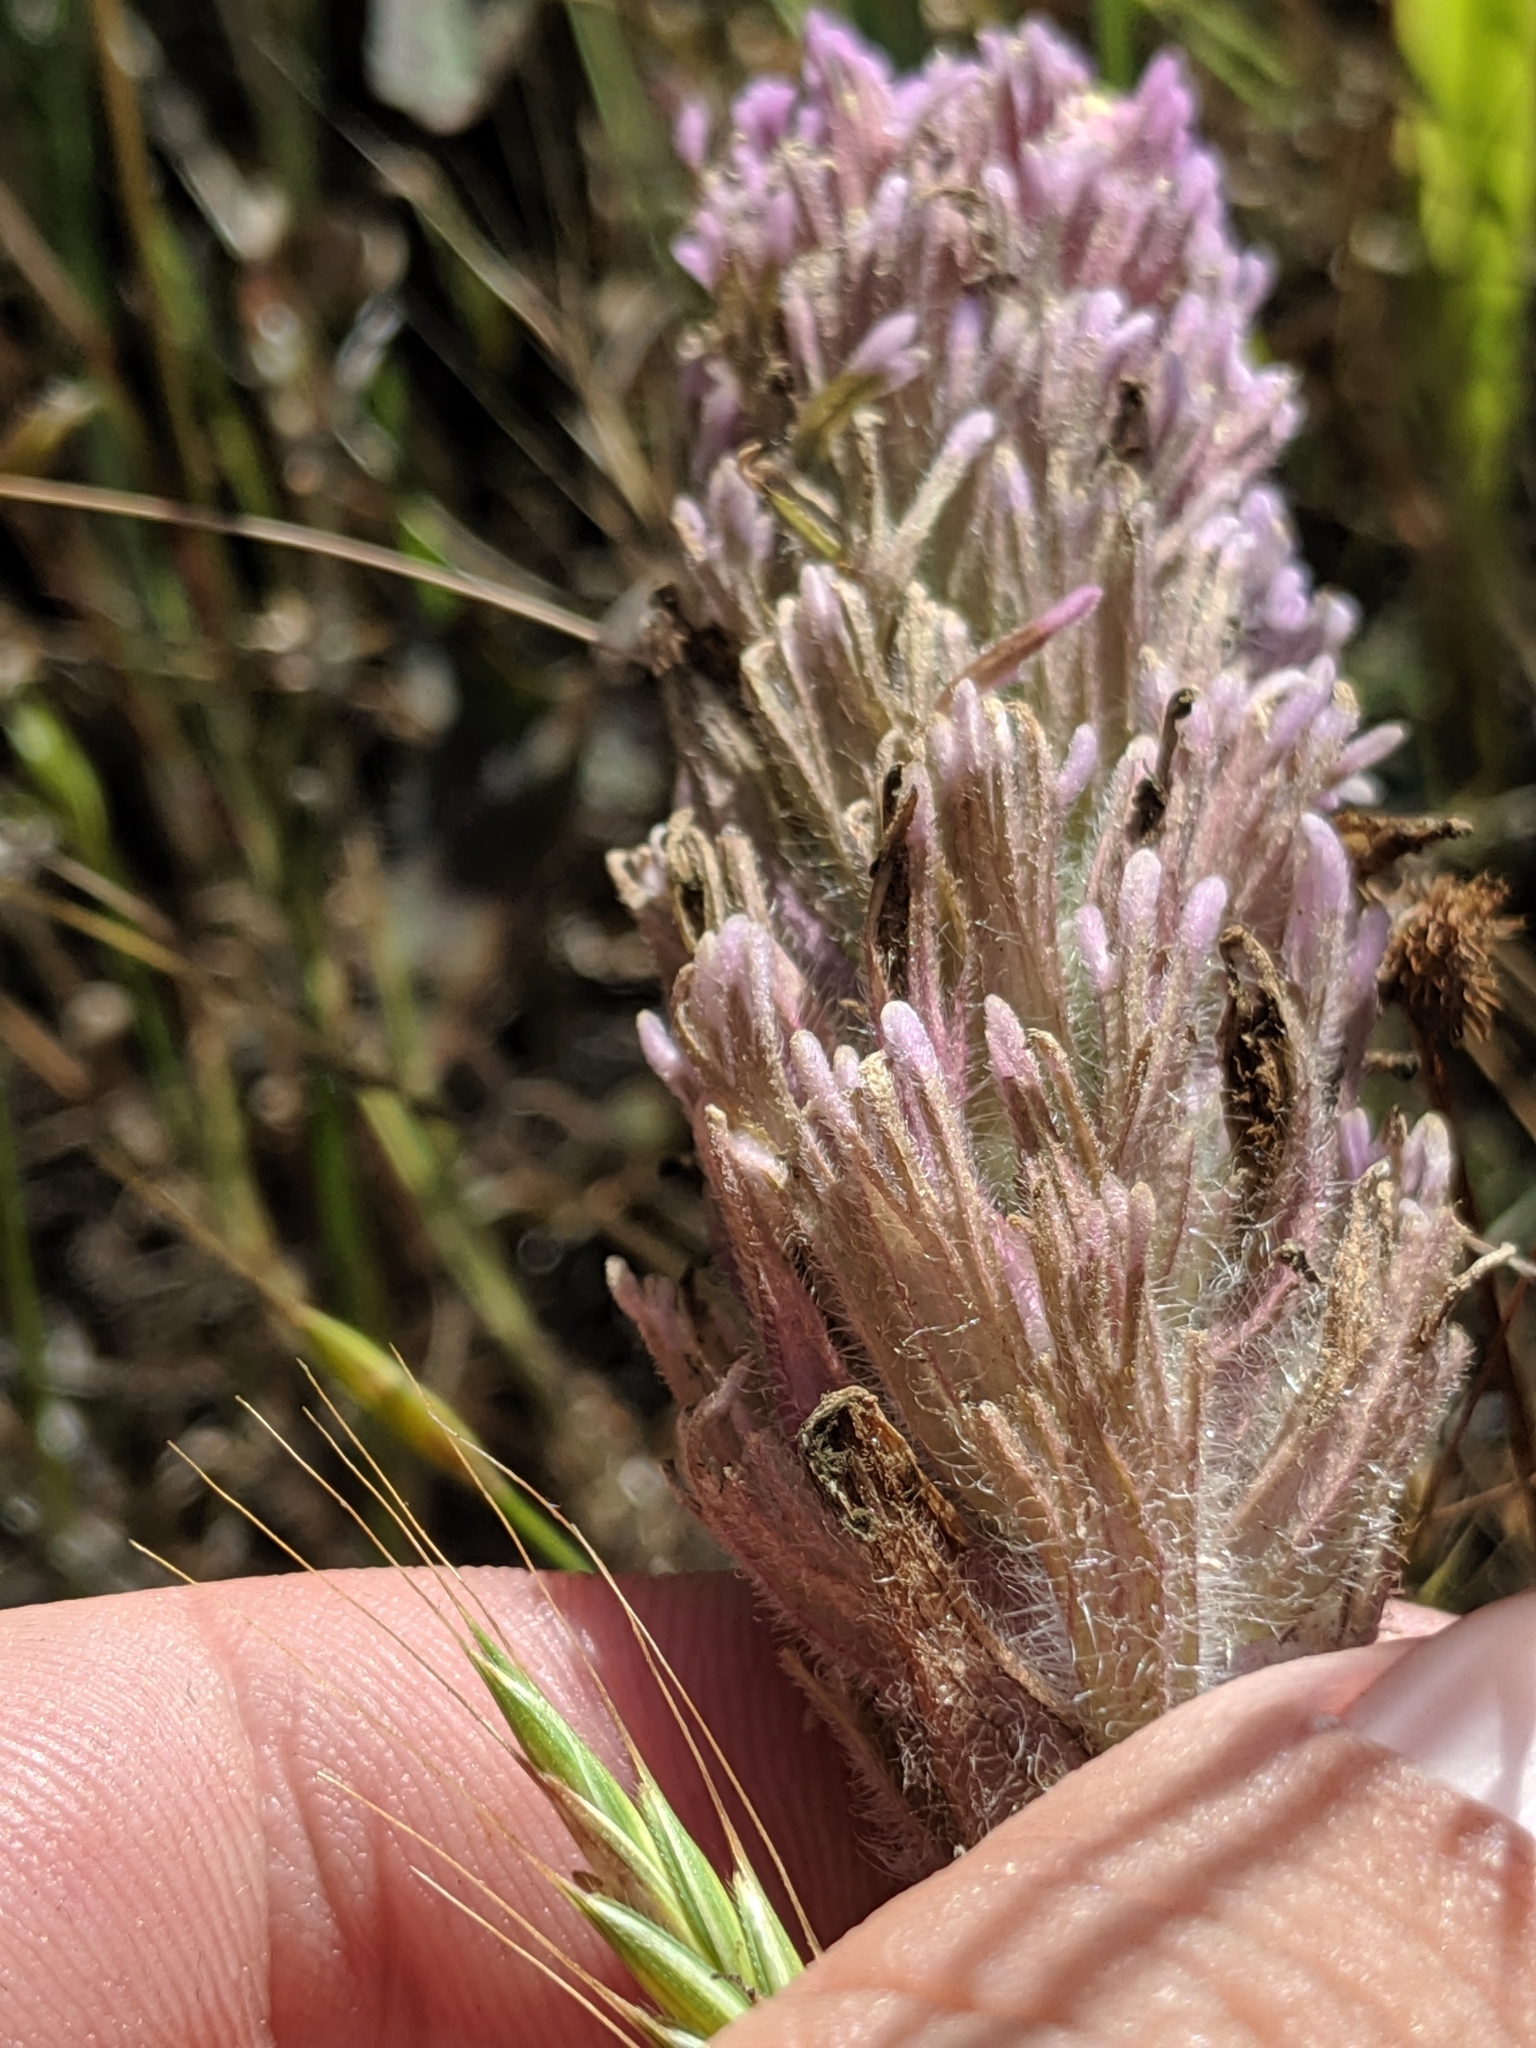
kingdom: Plantae
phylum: Tracheophyta
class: Magnoliopsida
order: Lamiales
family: Orobanchaceae
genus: Castilleja
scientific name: Castilleja exserta
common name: Purple owl-clover
